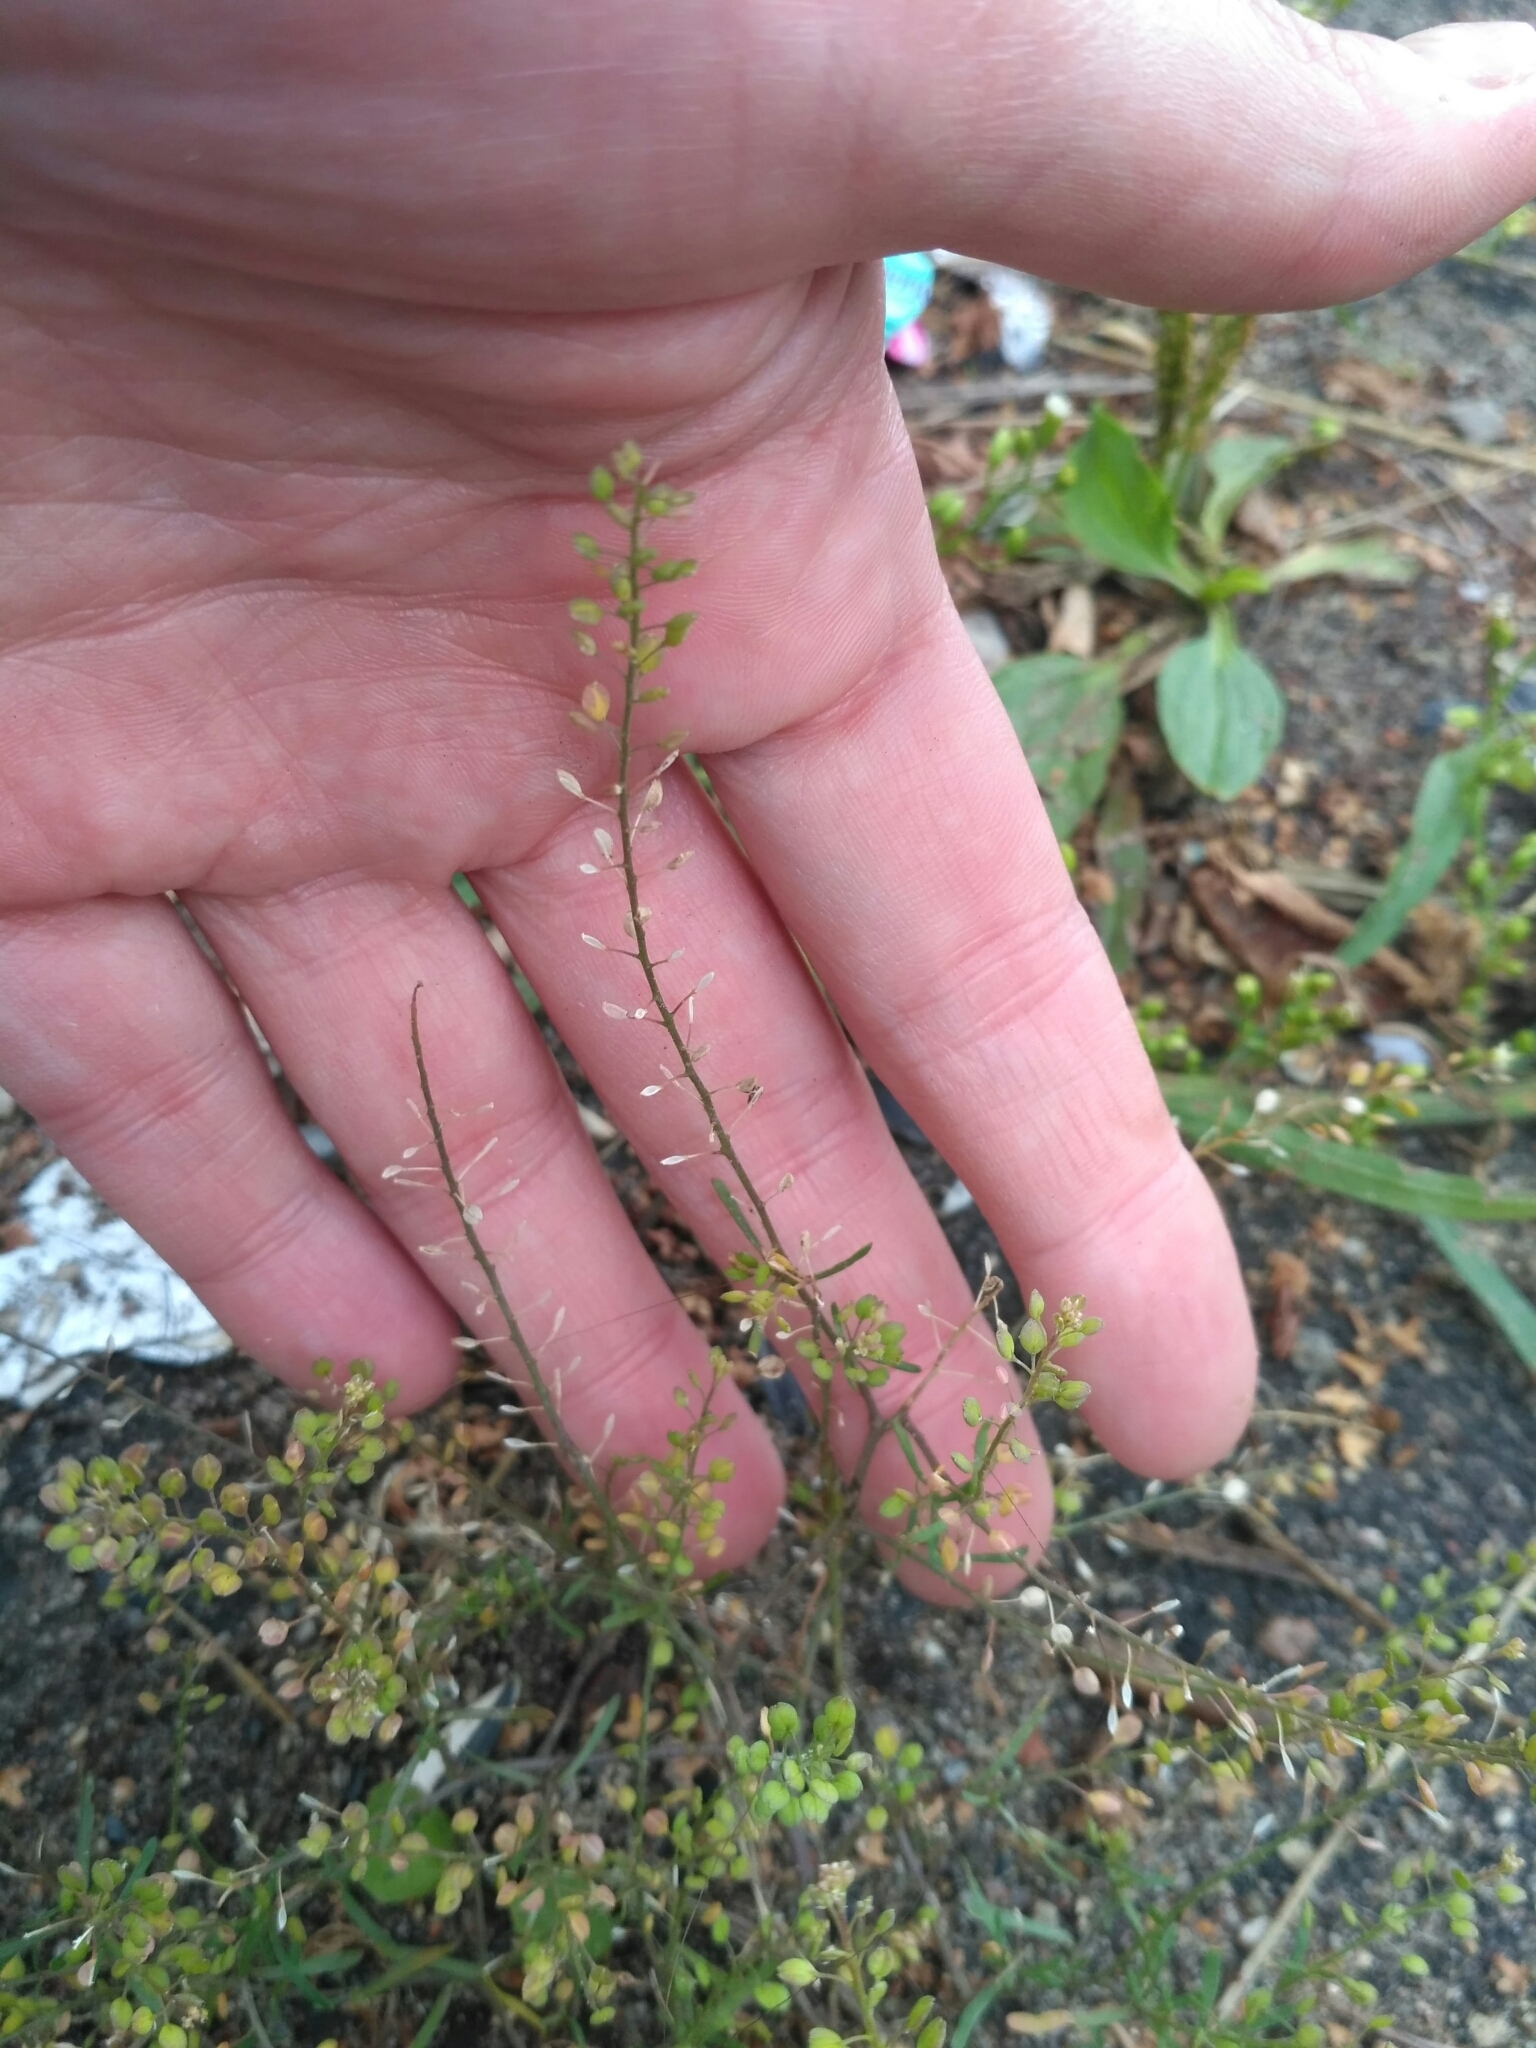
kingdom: Plantae
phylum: Tracheophyta
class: Magnoliopsida
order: Brassicales
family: Brassicaceae
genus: Lepidium
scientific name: Lepidium ruderale
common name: Narrow-leaved pepperwort
